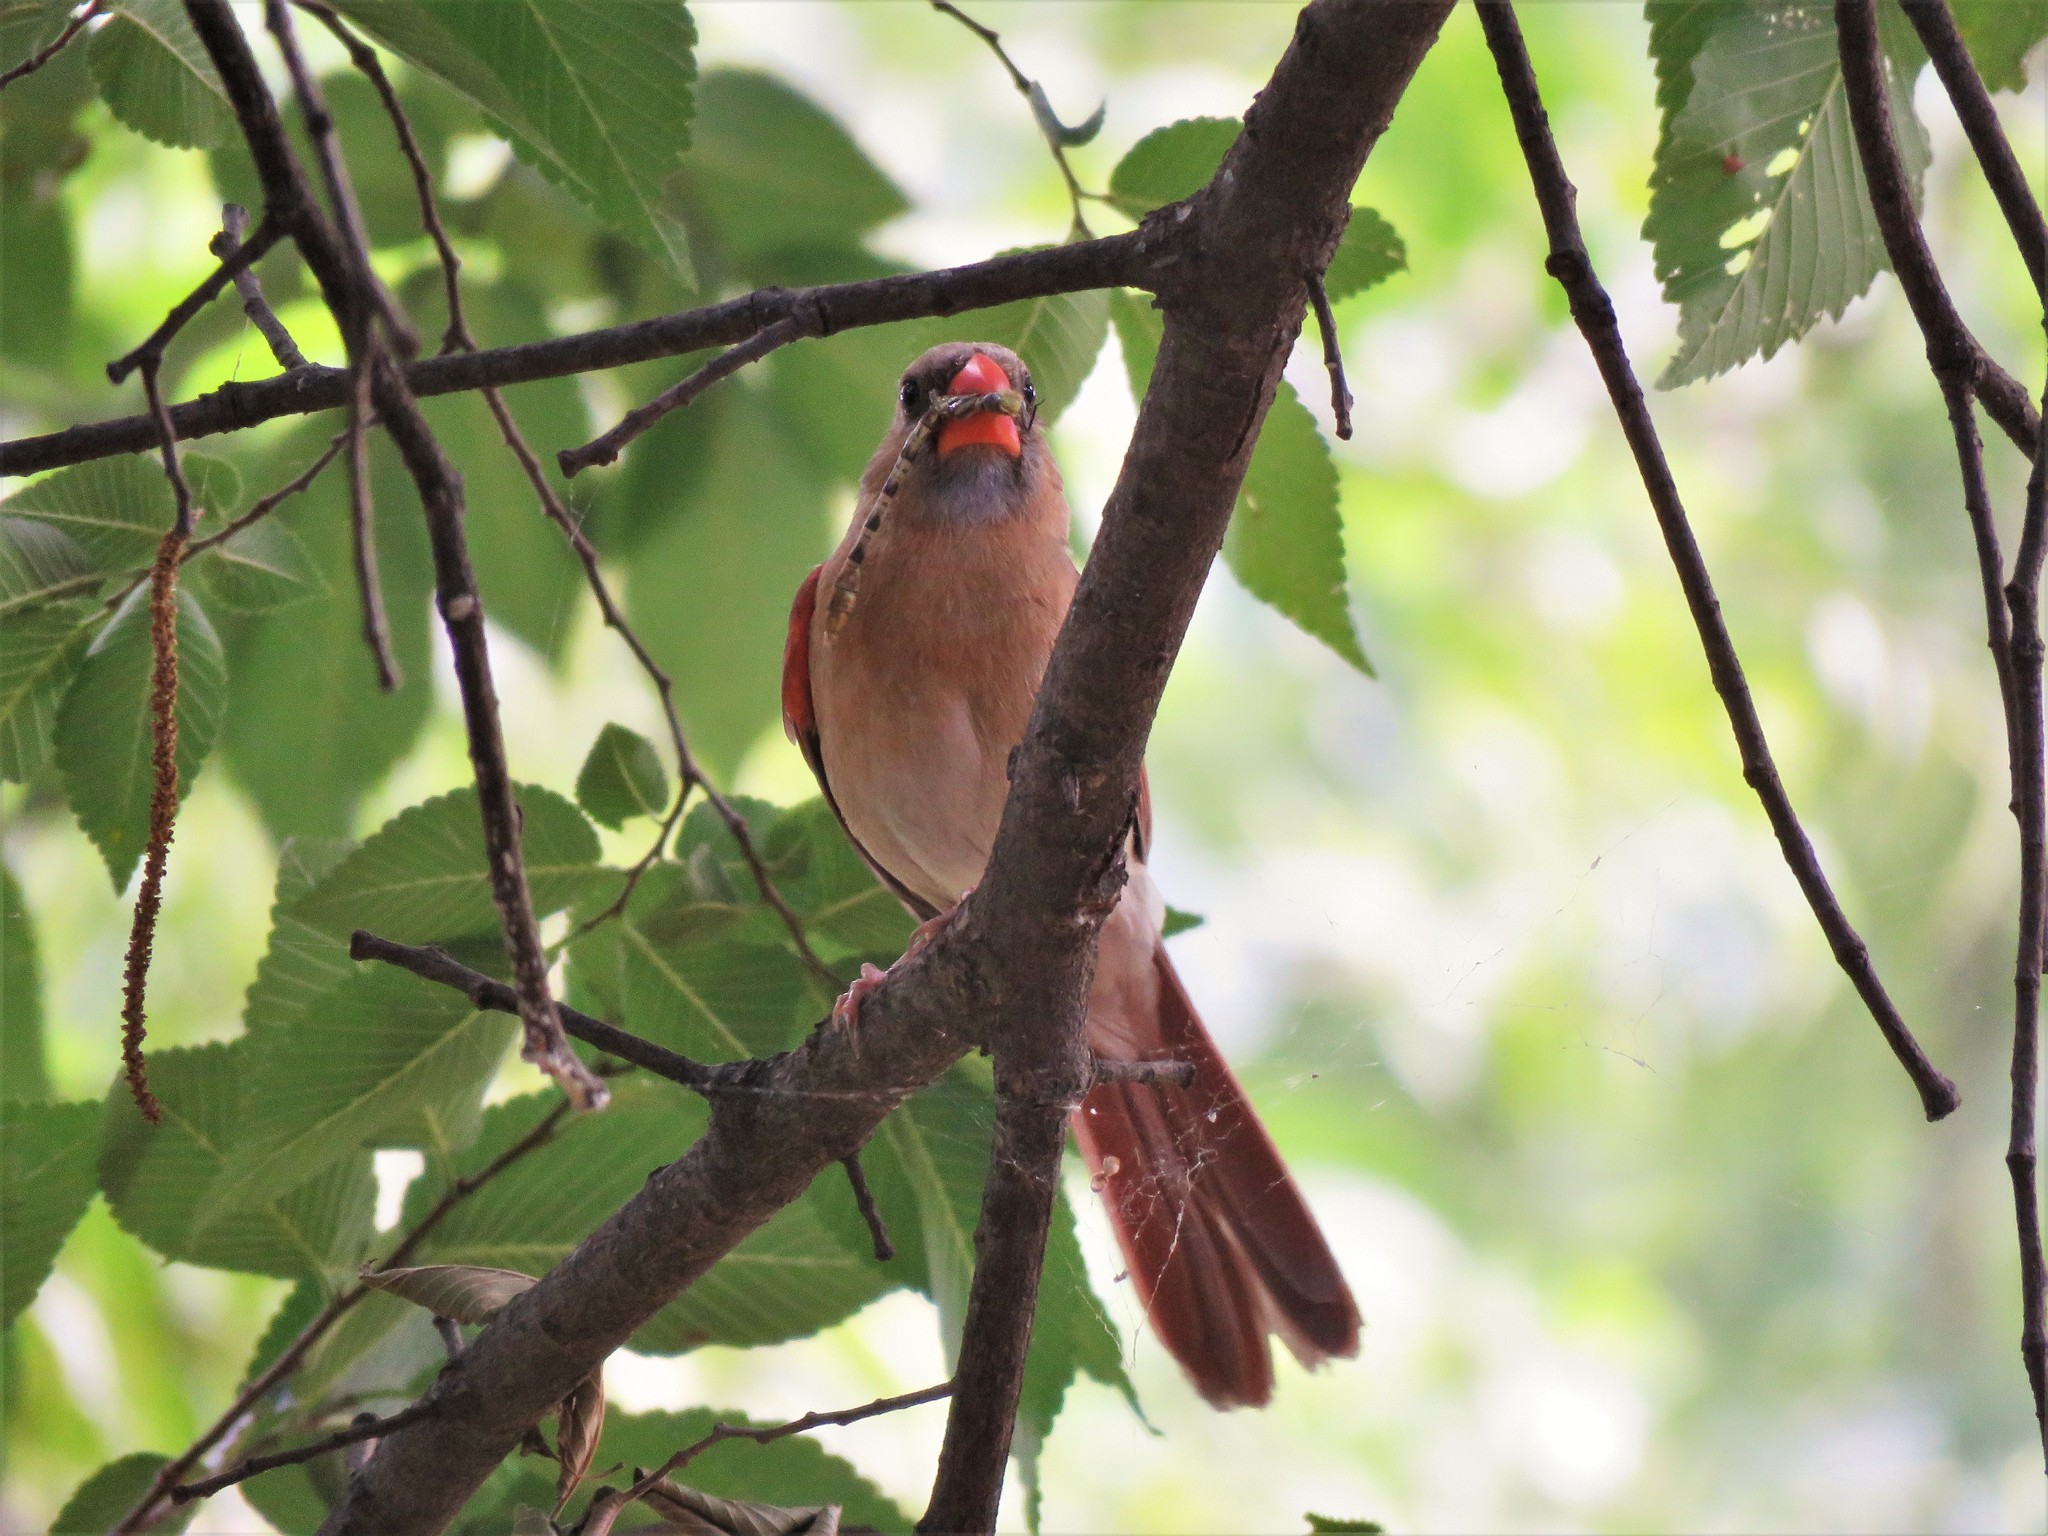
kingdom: Animalia
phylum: Chordata
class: Aves
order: Passeriformes
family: Cardinalidae
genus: Cardinalis
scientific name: Cardinalis cardinalis
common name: Northern cardinal
